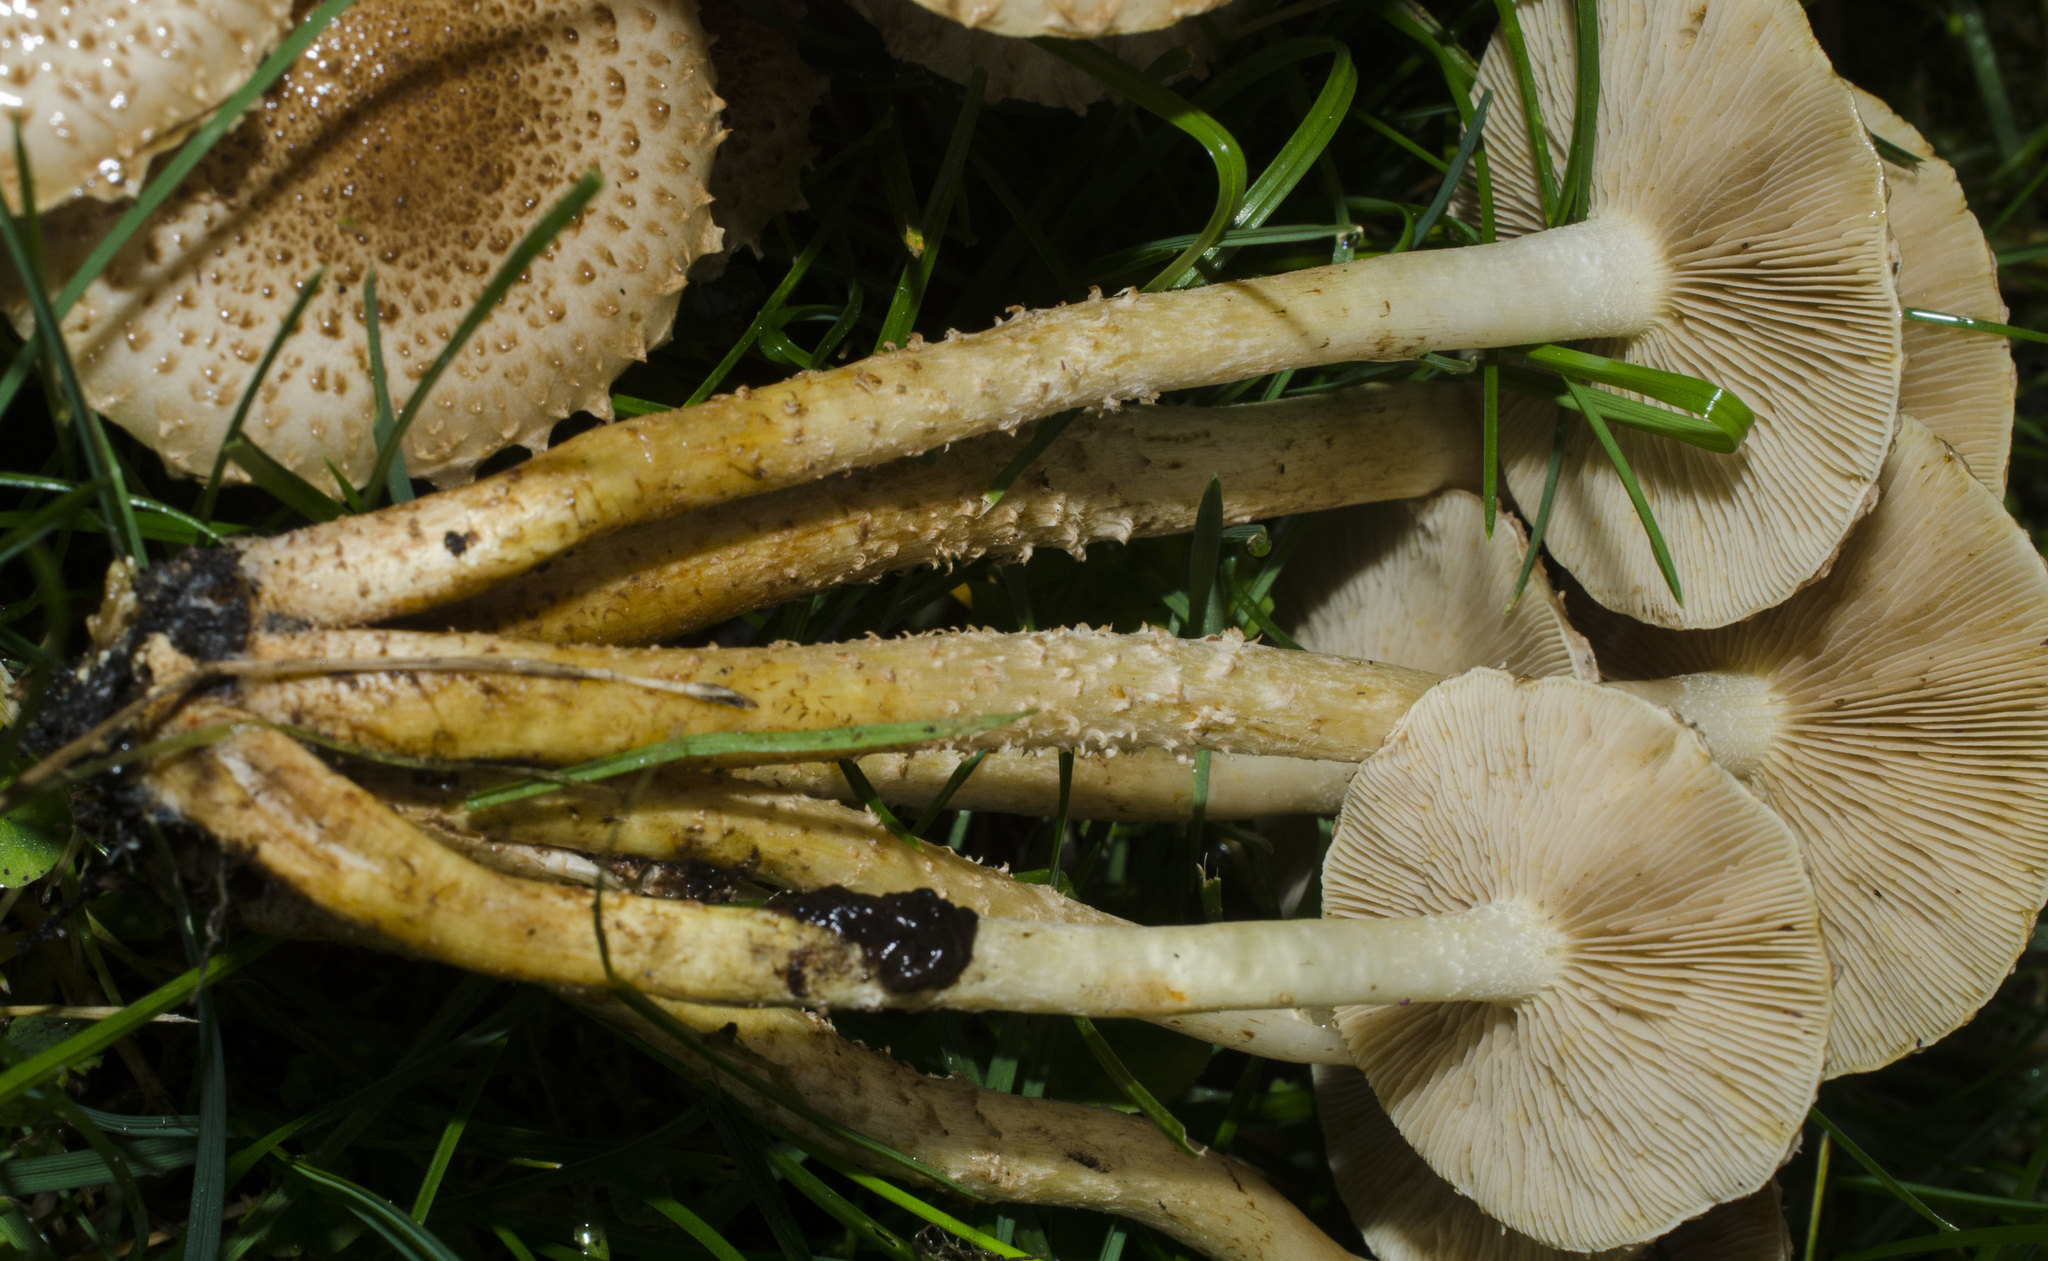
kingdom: Fungi
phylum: Basidiomycota
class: Agaricomycetes
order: Agaricales
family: Strophariaceae
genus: Pholiota
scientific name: Pholiota terrestris
